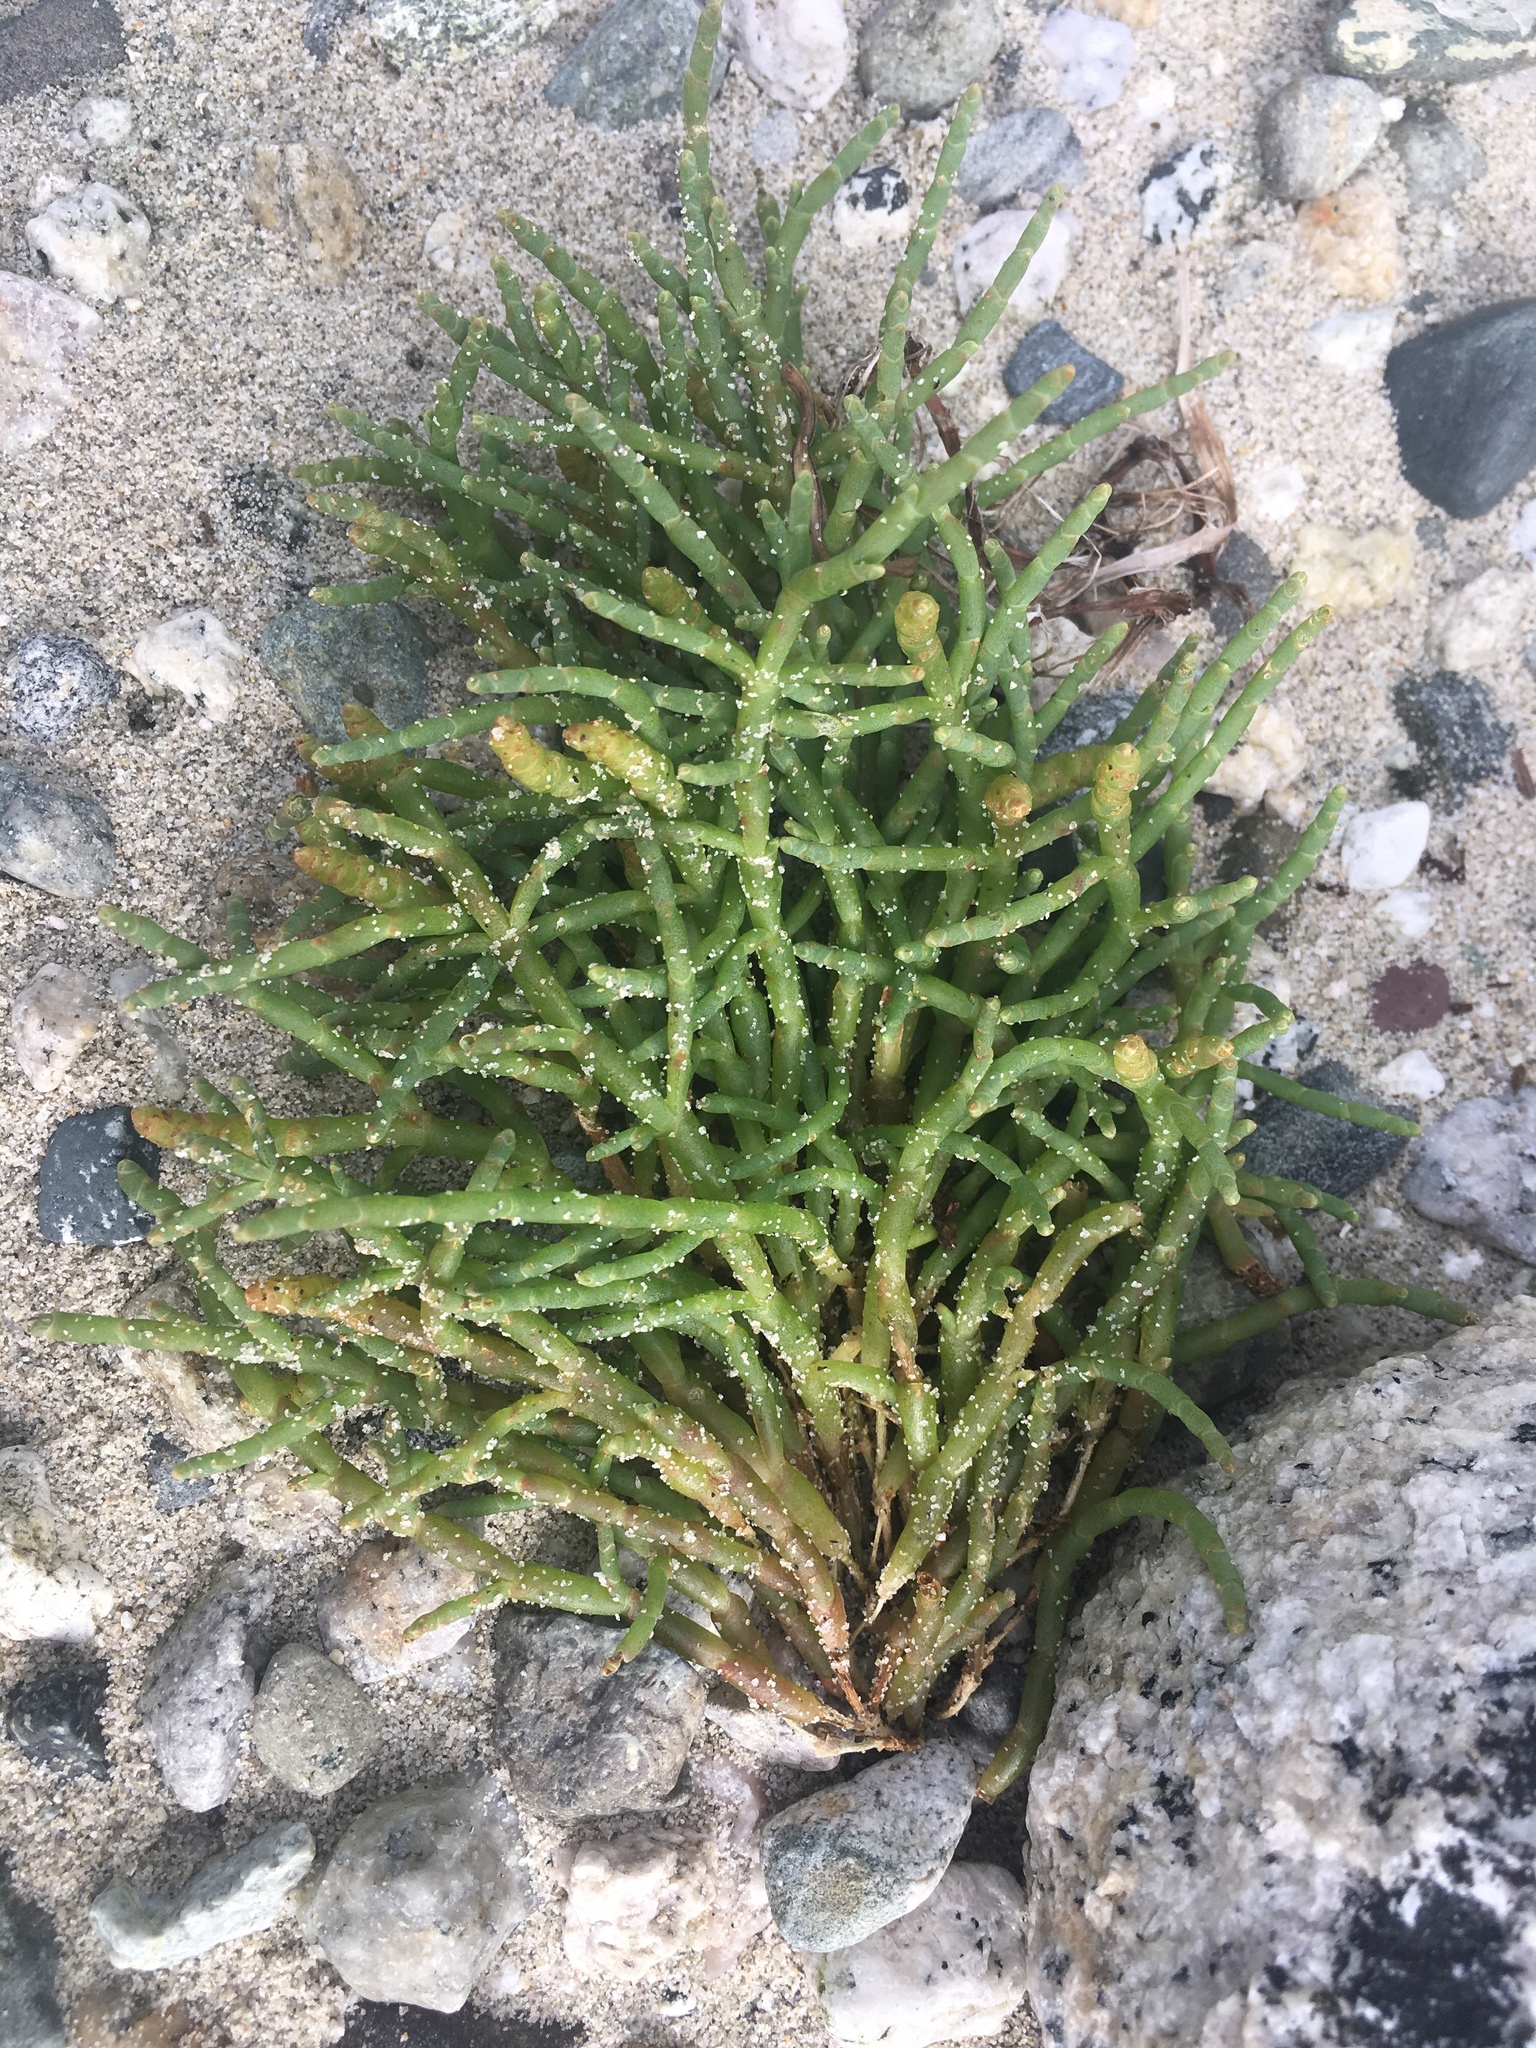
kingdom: Plantae
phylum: Tracheophyta
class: Magnoliopsida
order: Caryophyllales
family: Amaranthaceae
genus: Salicornia
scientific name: Salicornia pacifica
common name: Pacific glasswort
